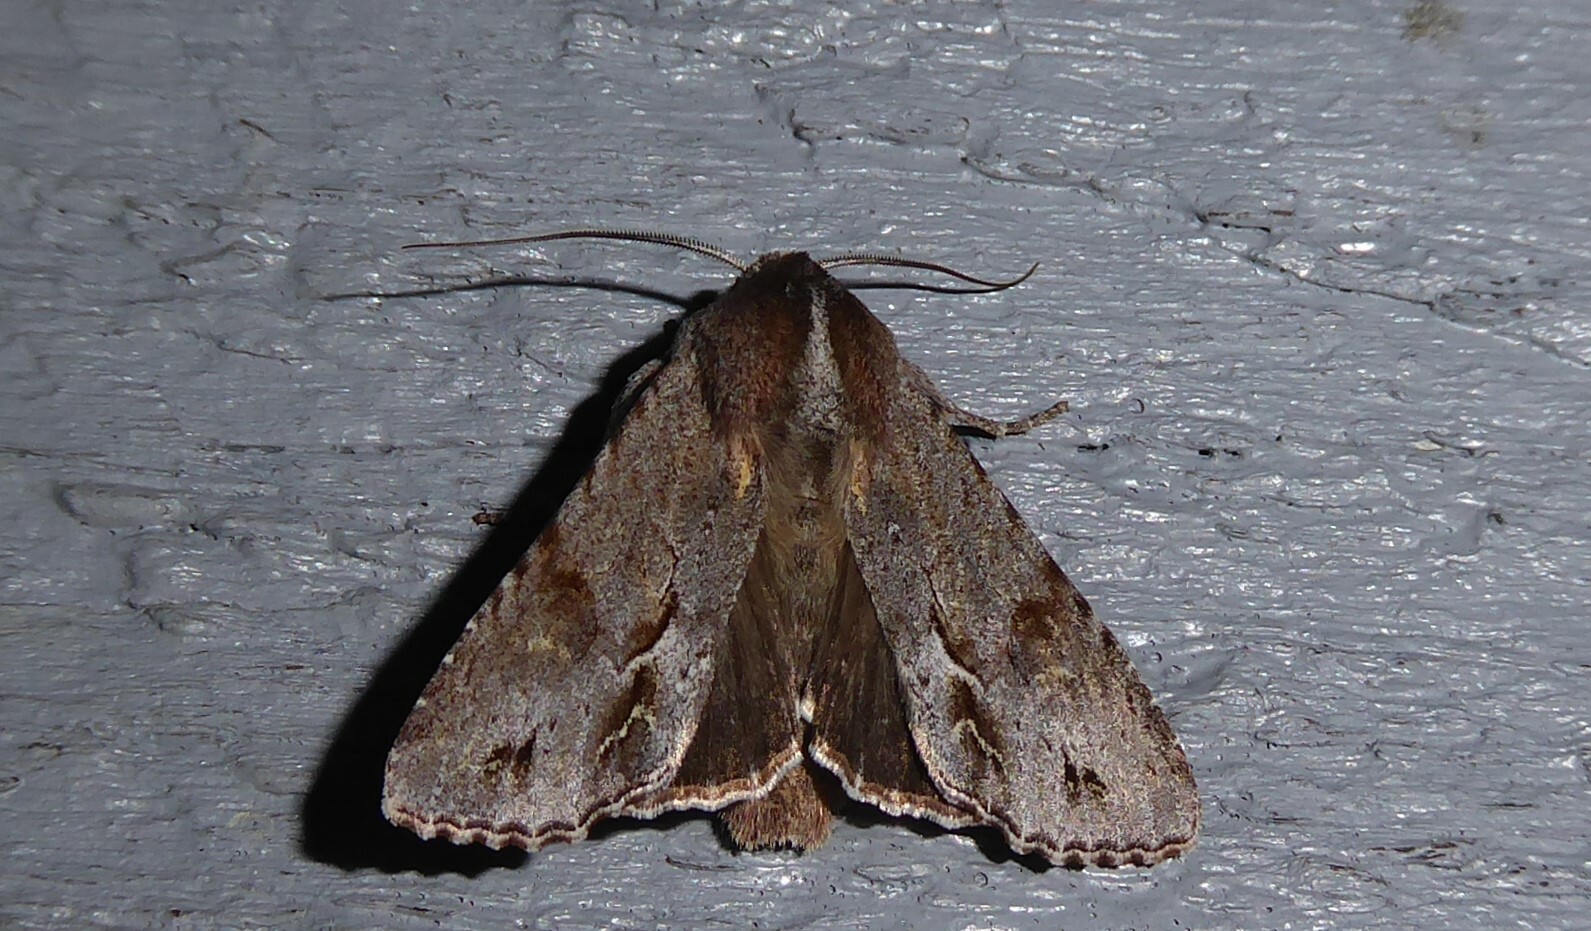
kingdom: Animalia
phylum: Arthropoda
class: Insecta
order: Lepidoptera
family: Noctuidae
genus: Ichneutica
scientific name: Ichneutica
